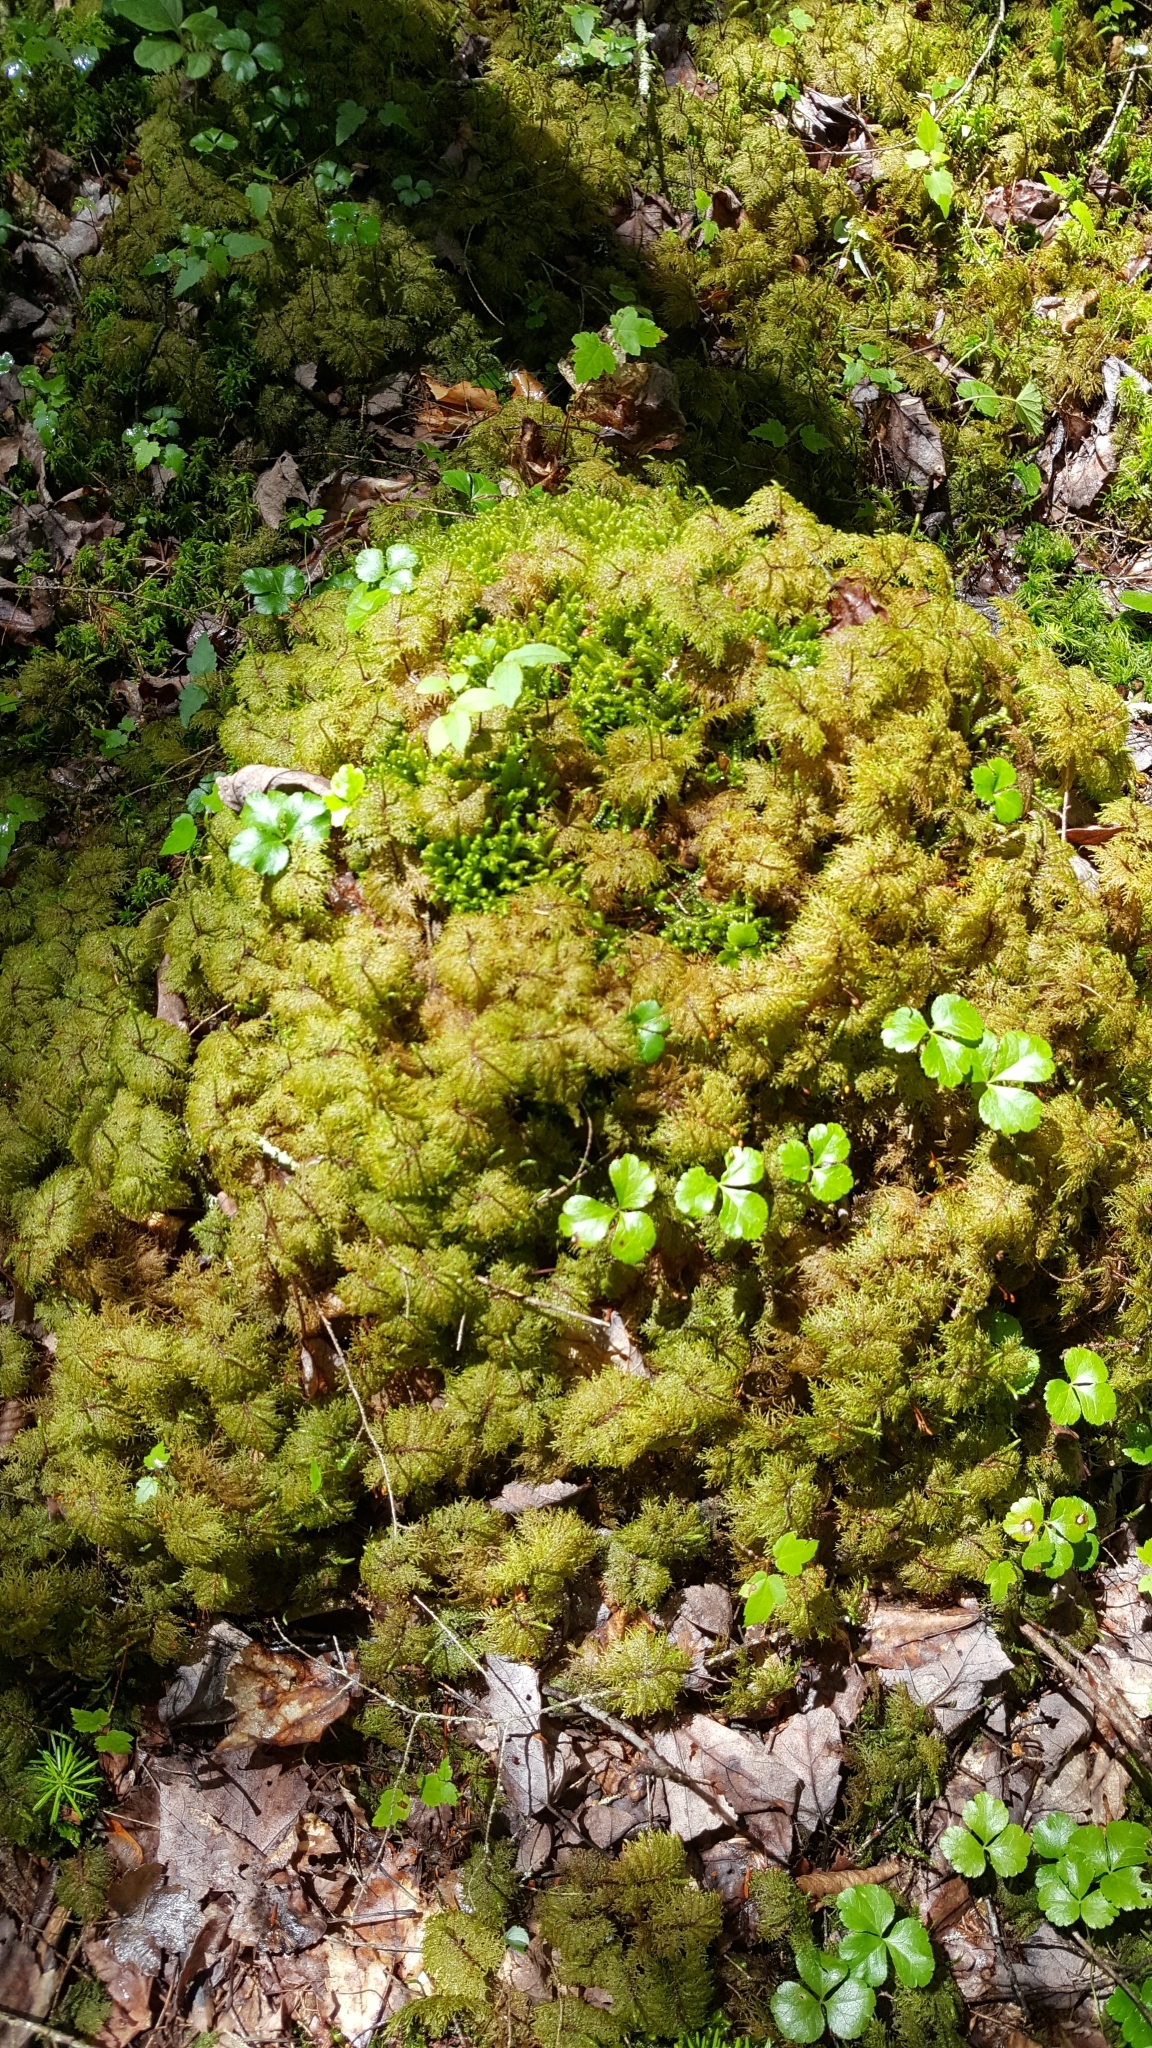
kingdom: Plantae
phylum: Bryophyta
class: Bryopsida
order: Hypnales
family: Hylocomiaceae
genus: Hylocomium
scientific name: Hylocomium splendens
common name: Stairstep moss
